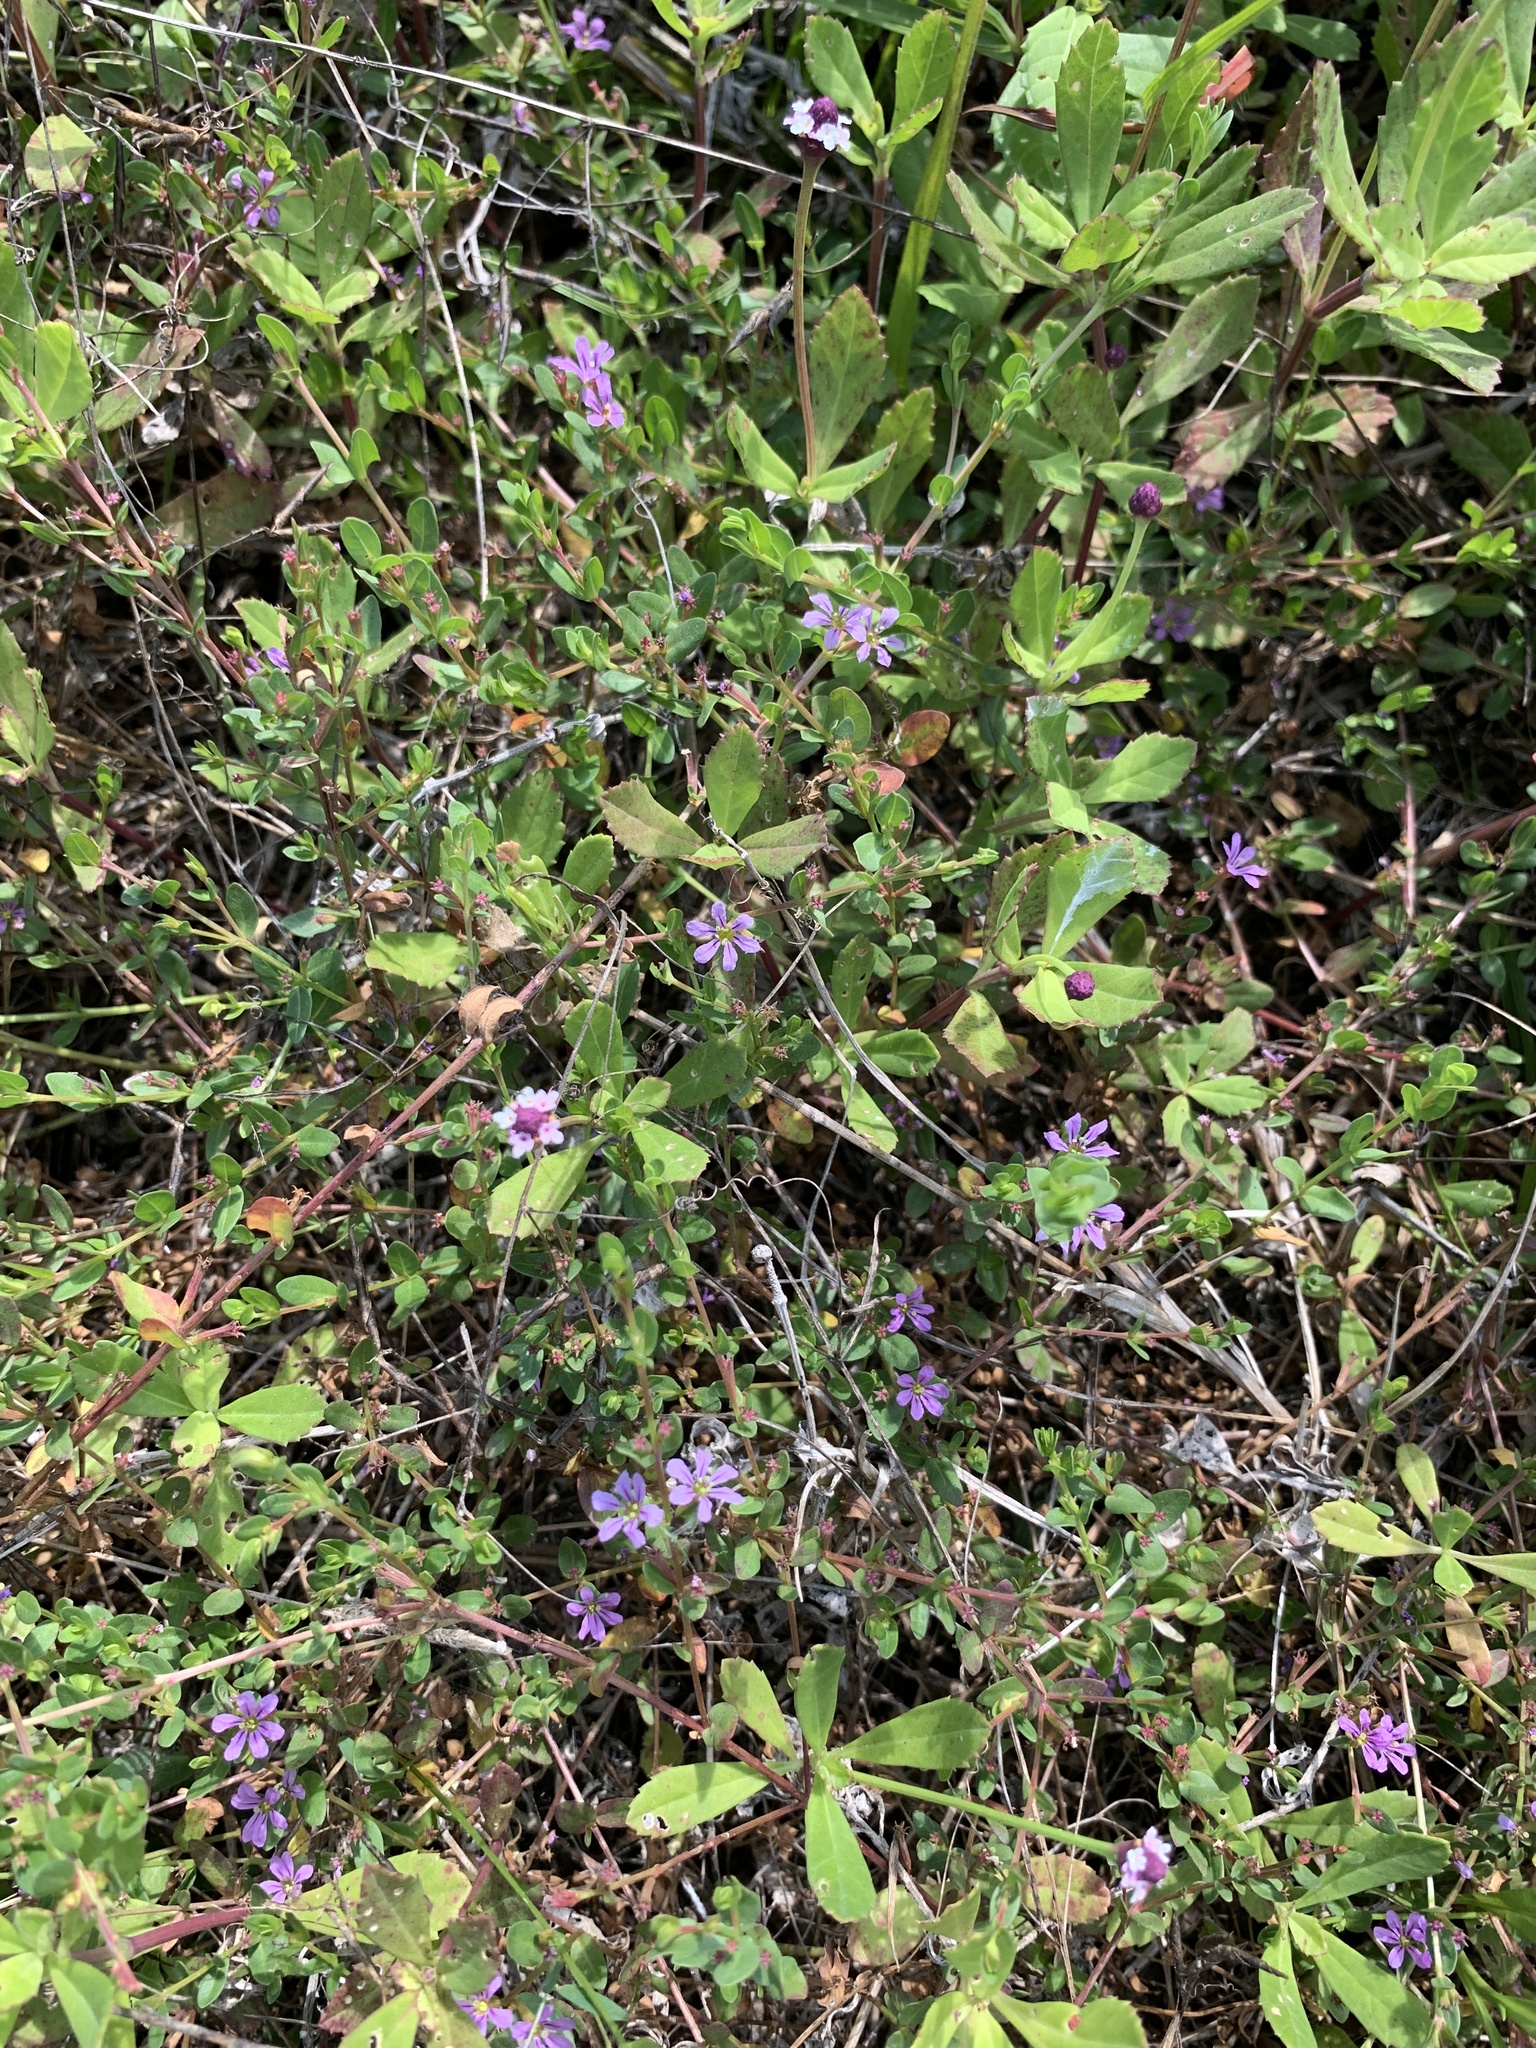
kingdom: Plantae
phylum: Tracheophyta
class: Magnoliopsida
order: Myrtales
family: Lythraceae
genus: Lythrum
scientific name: Lythrum flagellare
